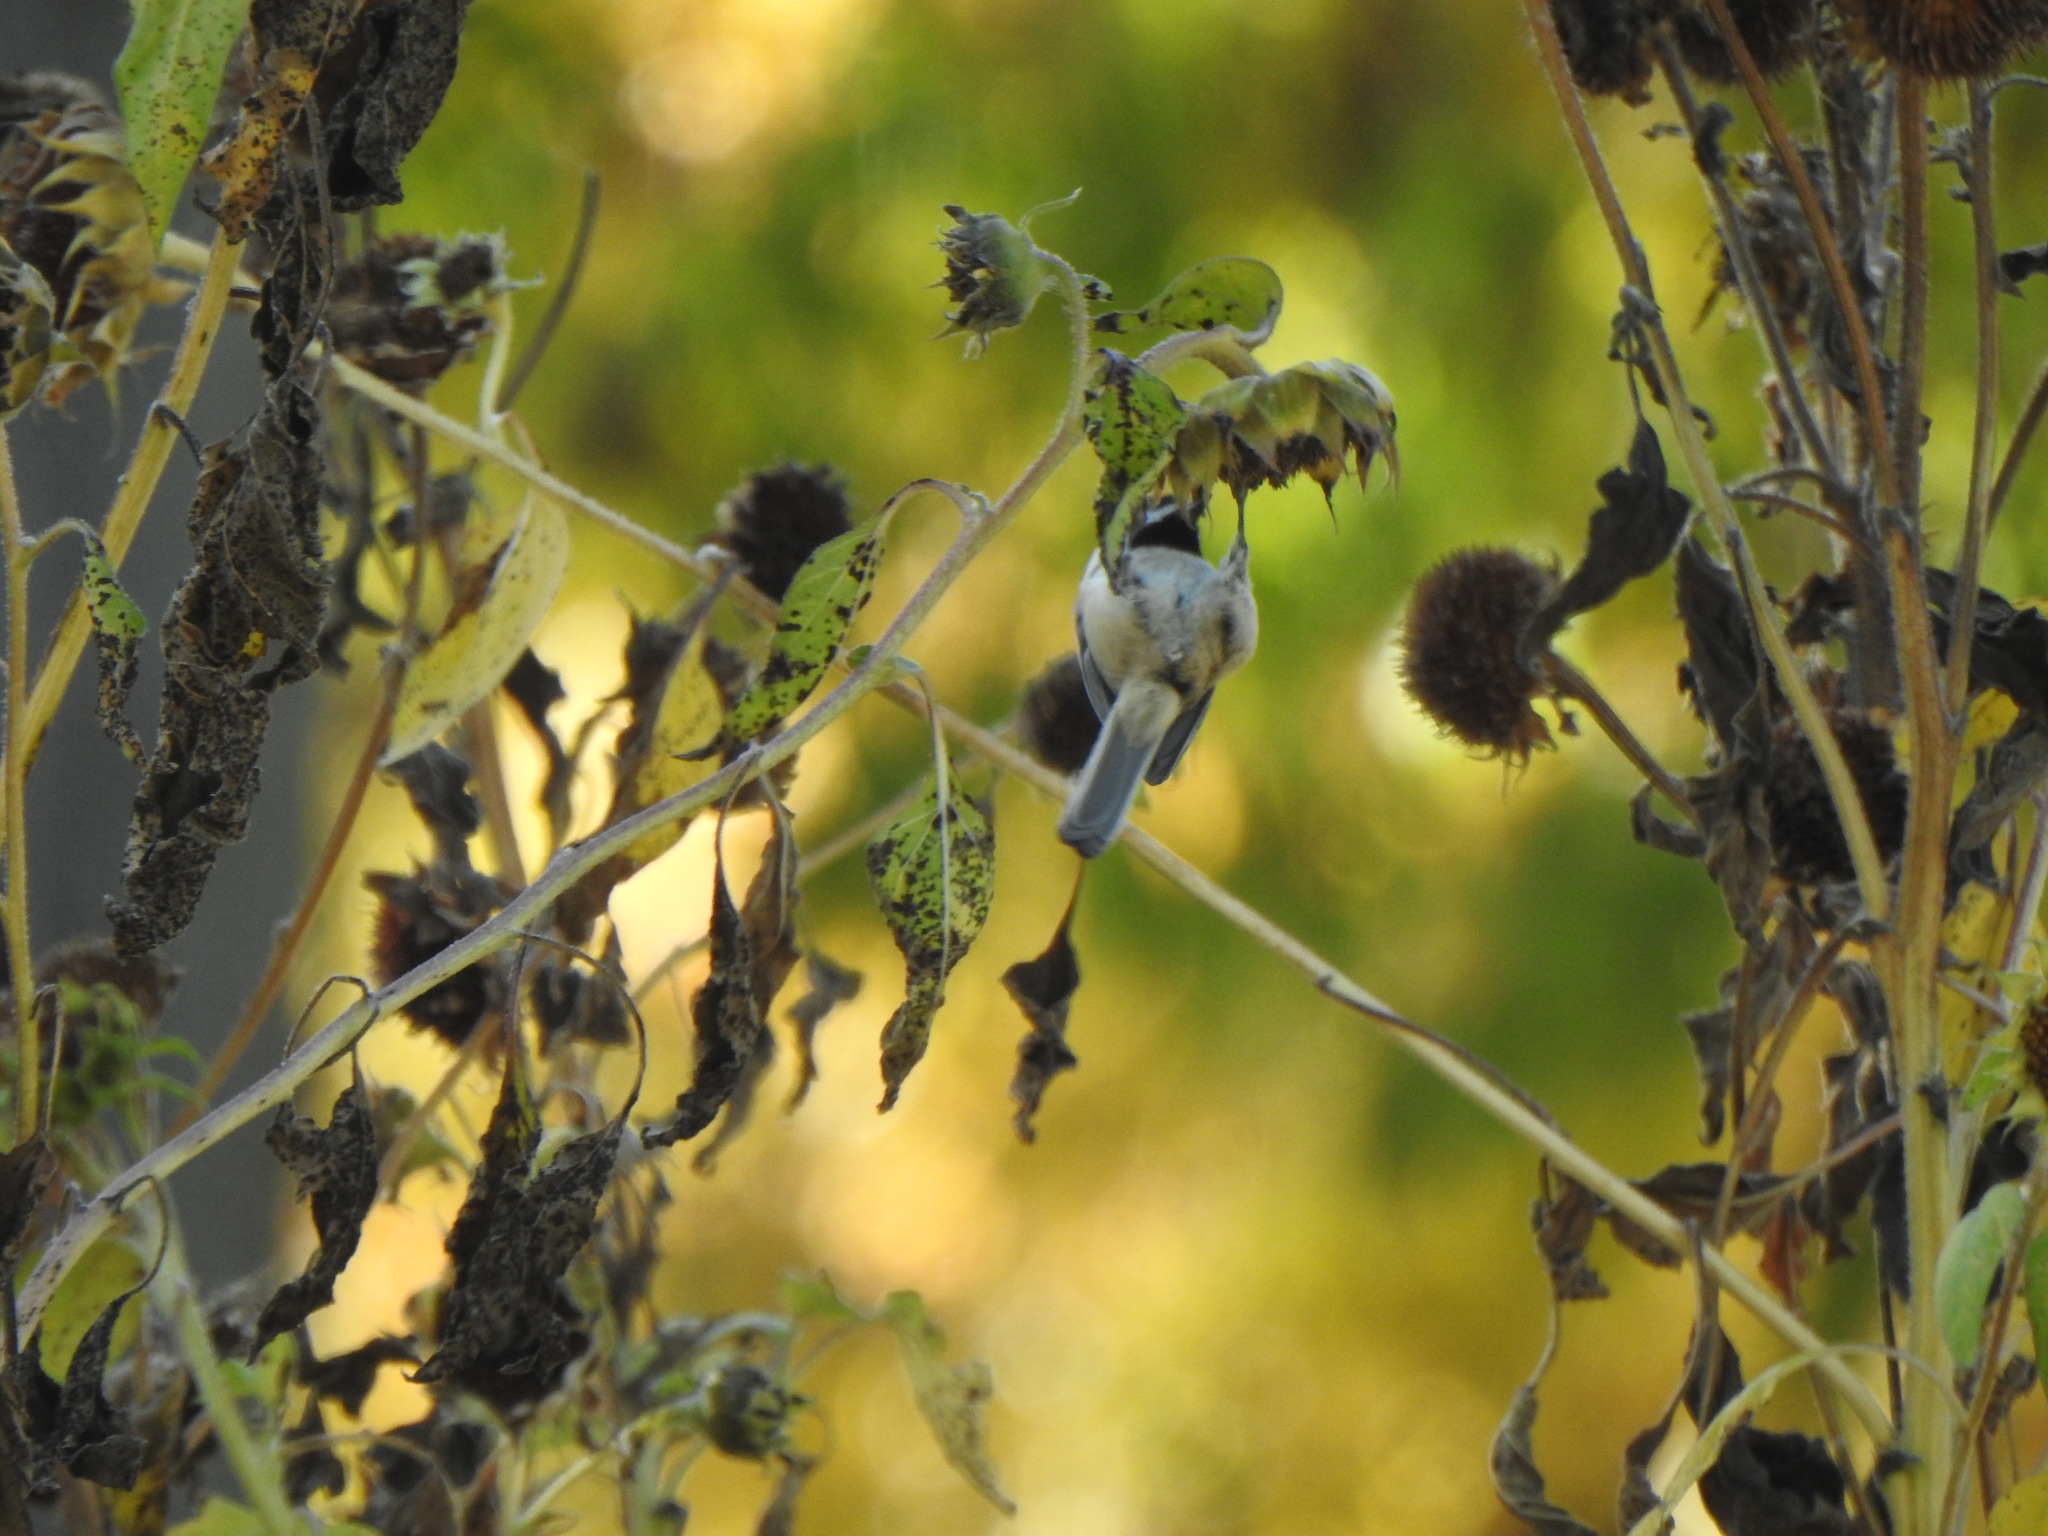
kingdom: Animalia
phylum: Chordata
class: Aves
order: Passeriformes
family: Paridae
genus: Poecile
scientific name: Poecile atricapillus
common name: Black-capped chickadee
